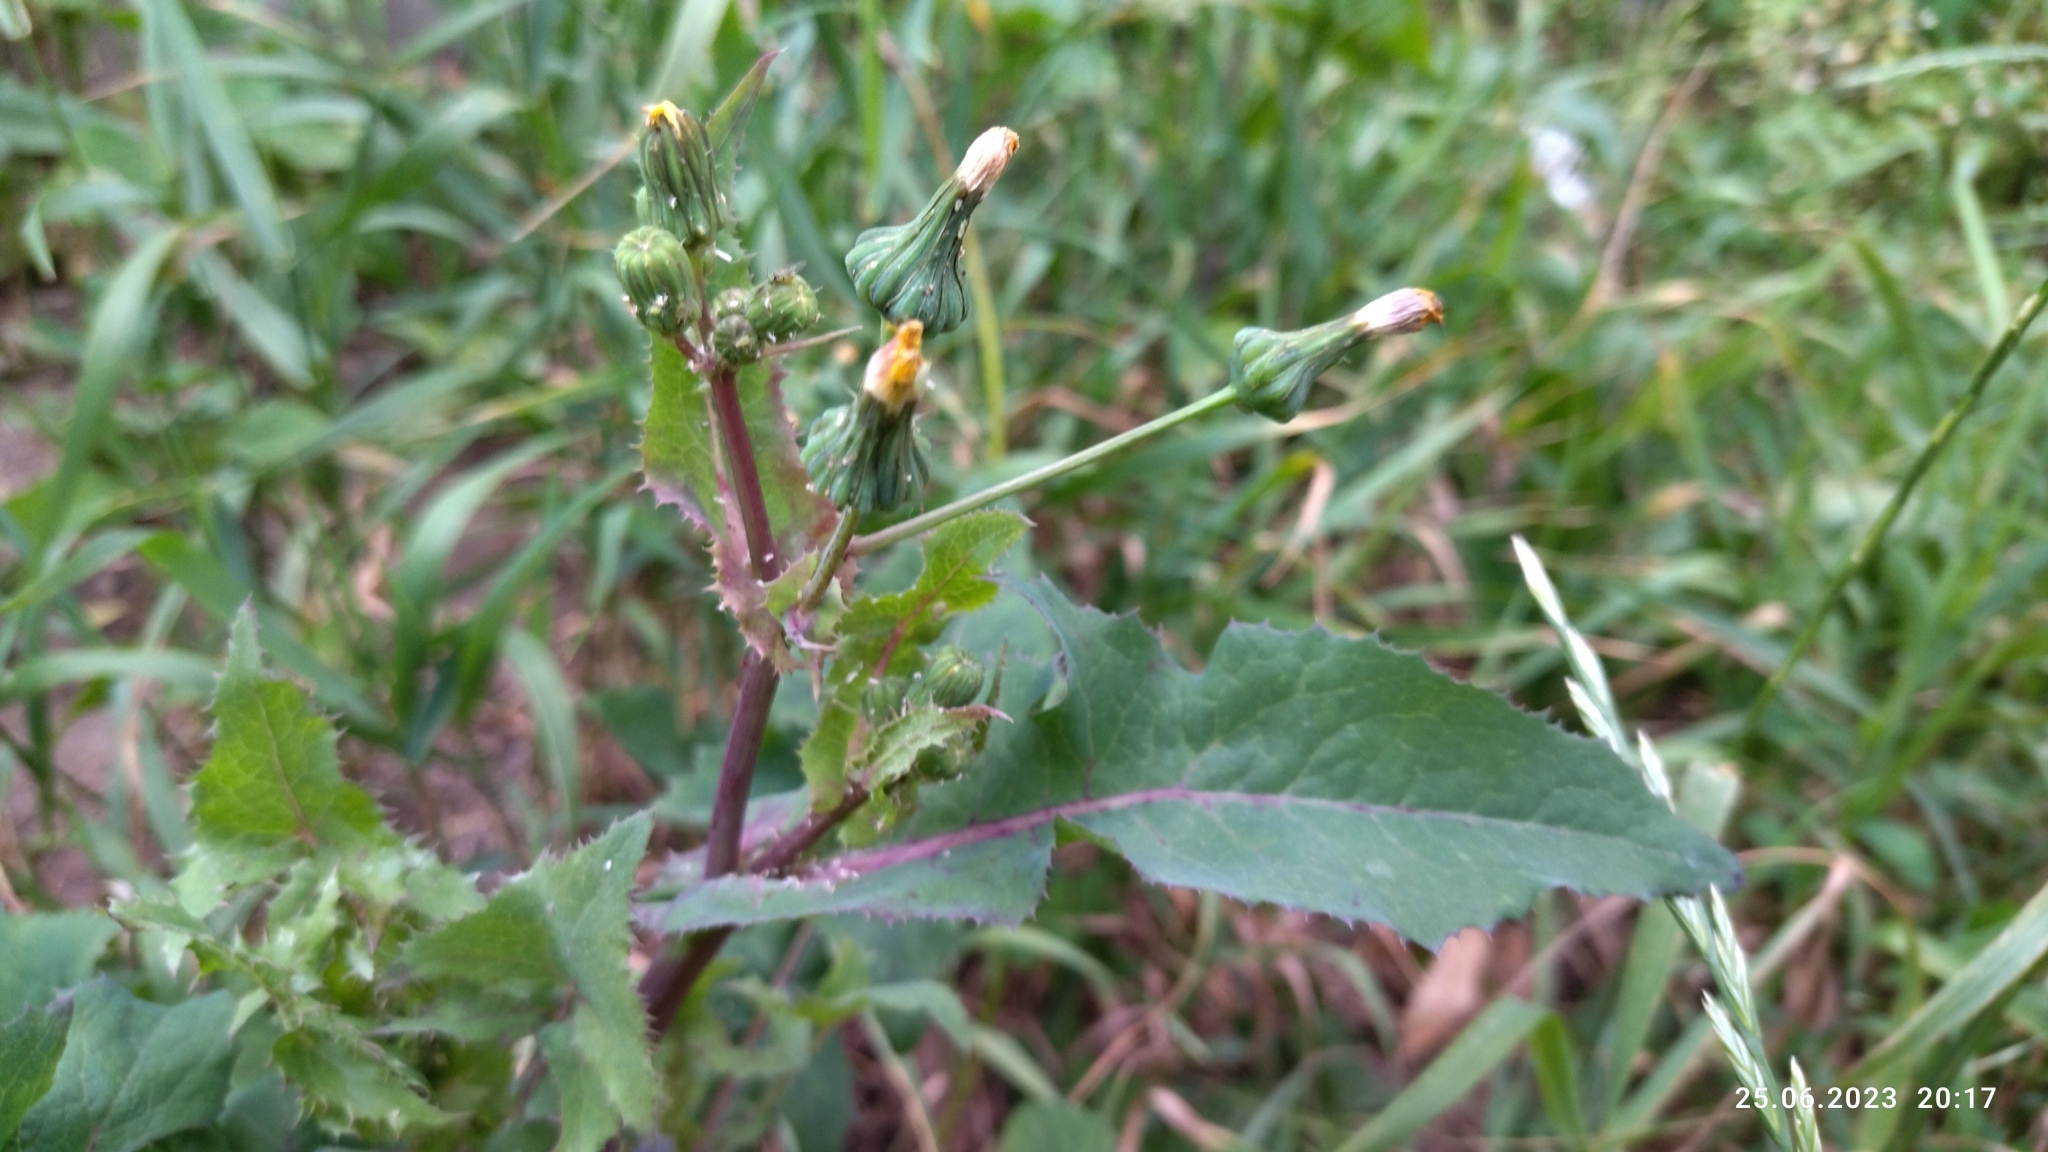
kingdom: Plantae
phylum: Tracheophyta
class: Magnoliopsida
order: Asterales
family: Asteraceae
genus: Sonchus
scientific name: Sonchus oleraceus
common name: Common sowthistle
